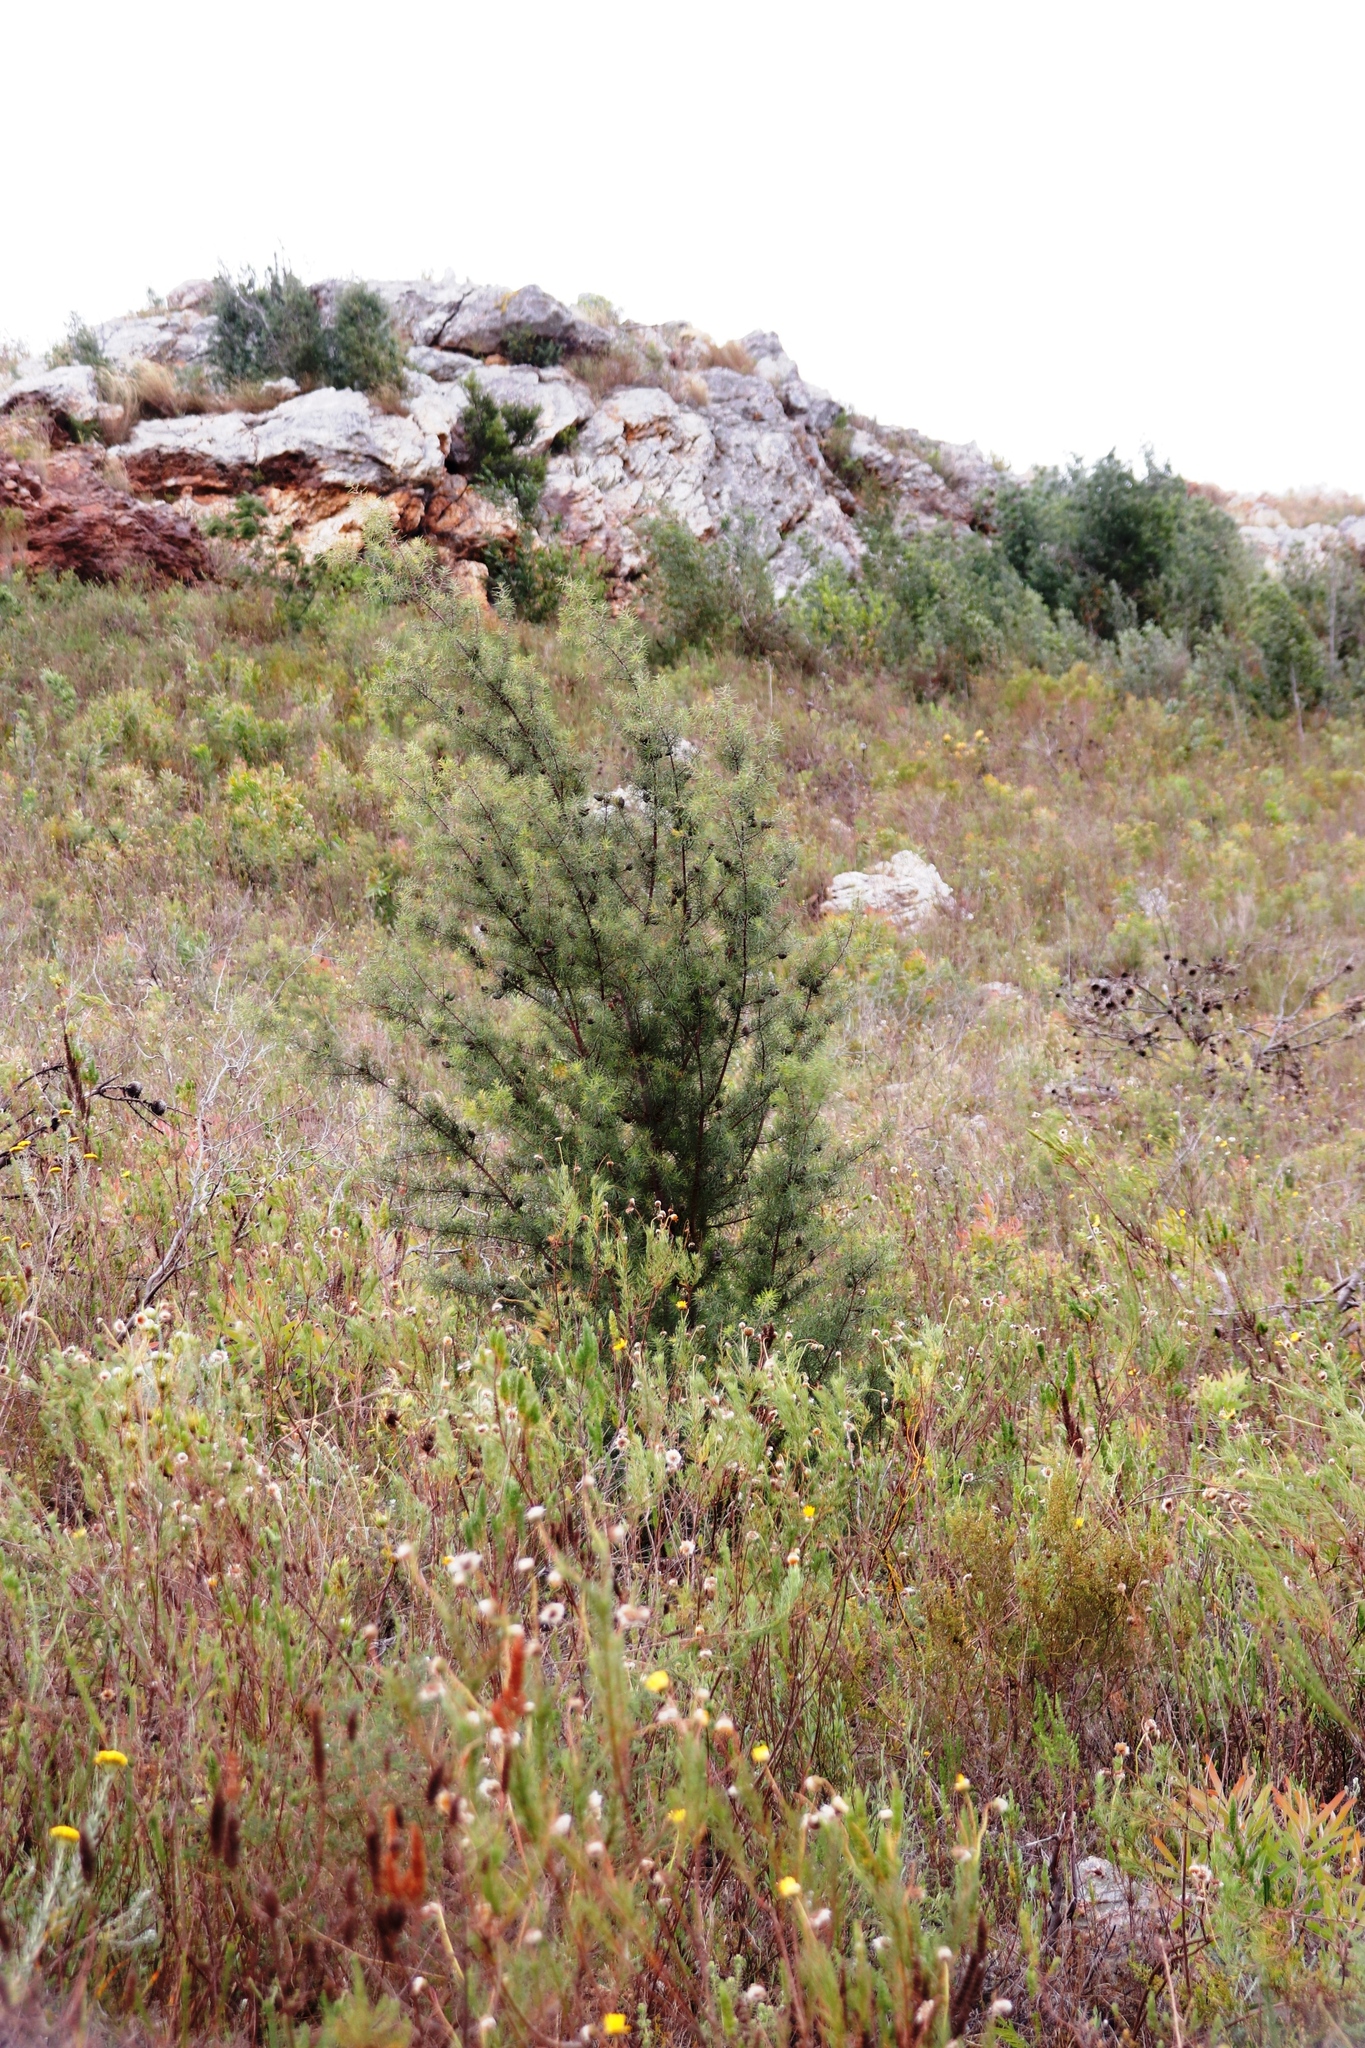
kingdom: Plantae
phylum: Tracheophyta
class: Magnoliopsida
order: Proteales
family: Proteaceae
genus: Hakea
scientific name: Hakea sericea
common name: Needle bush
